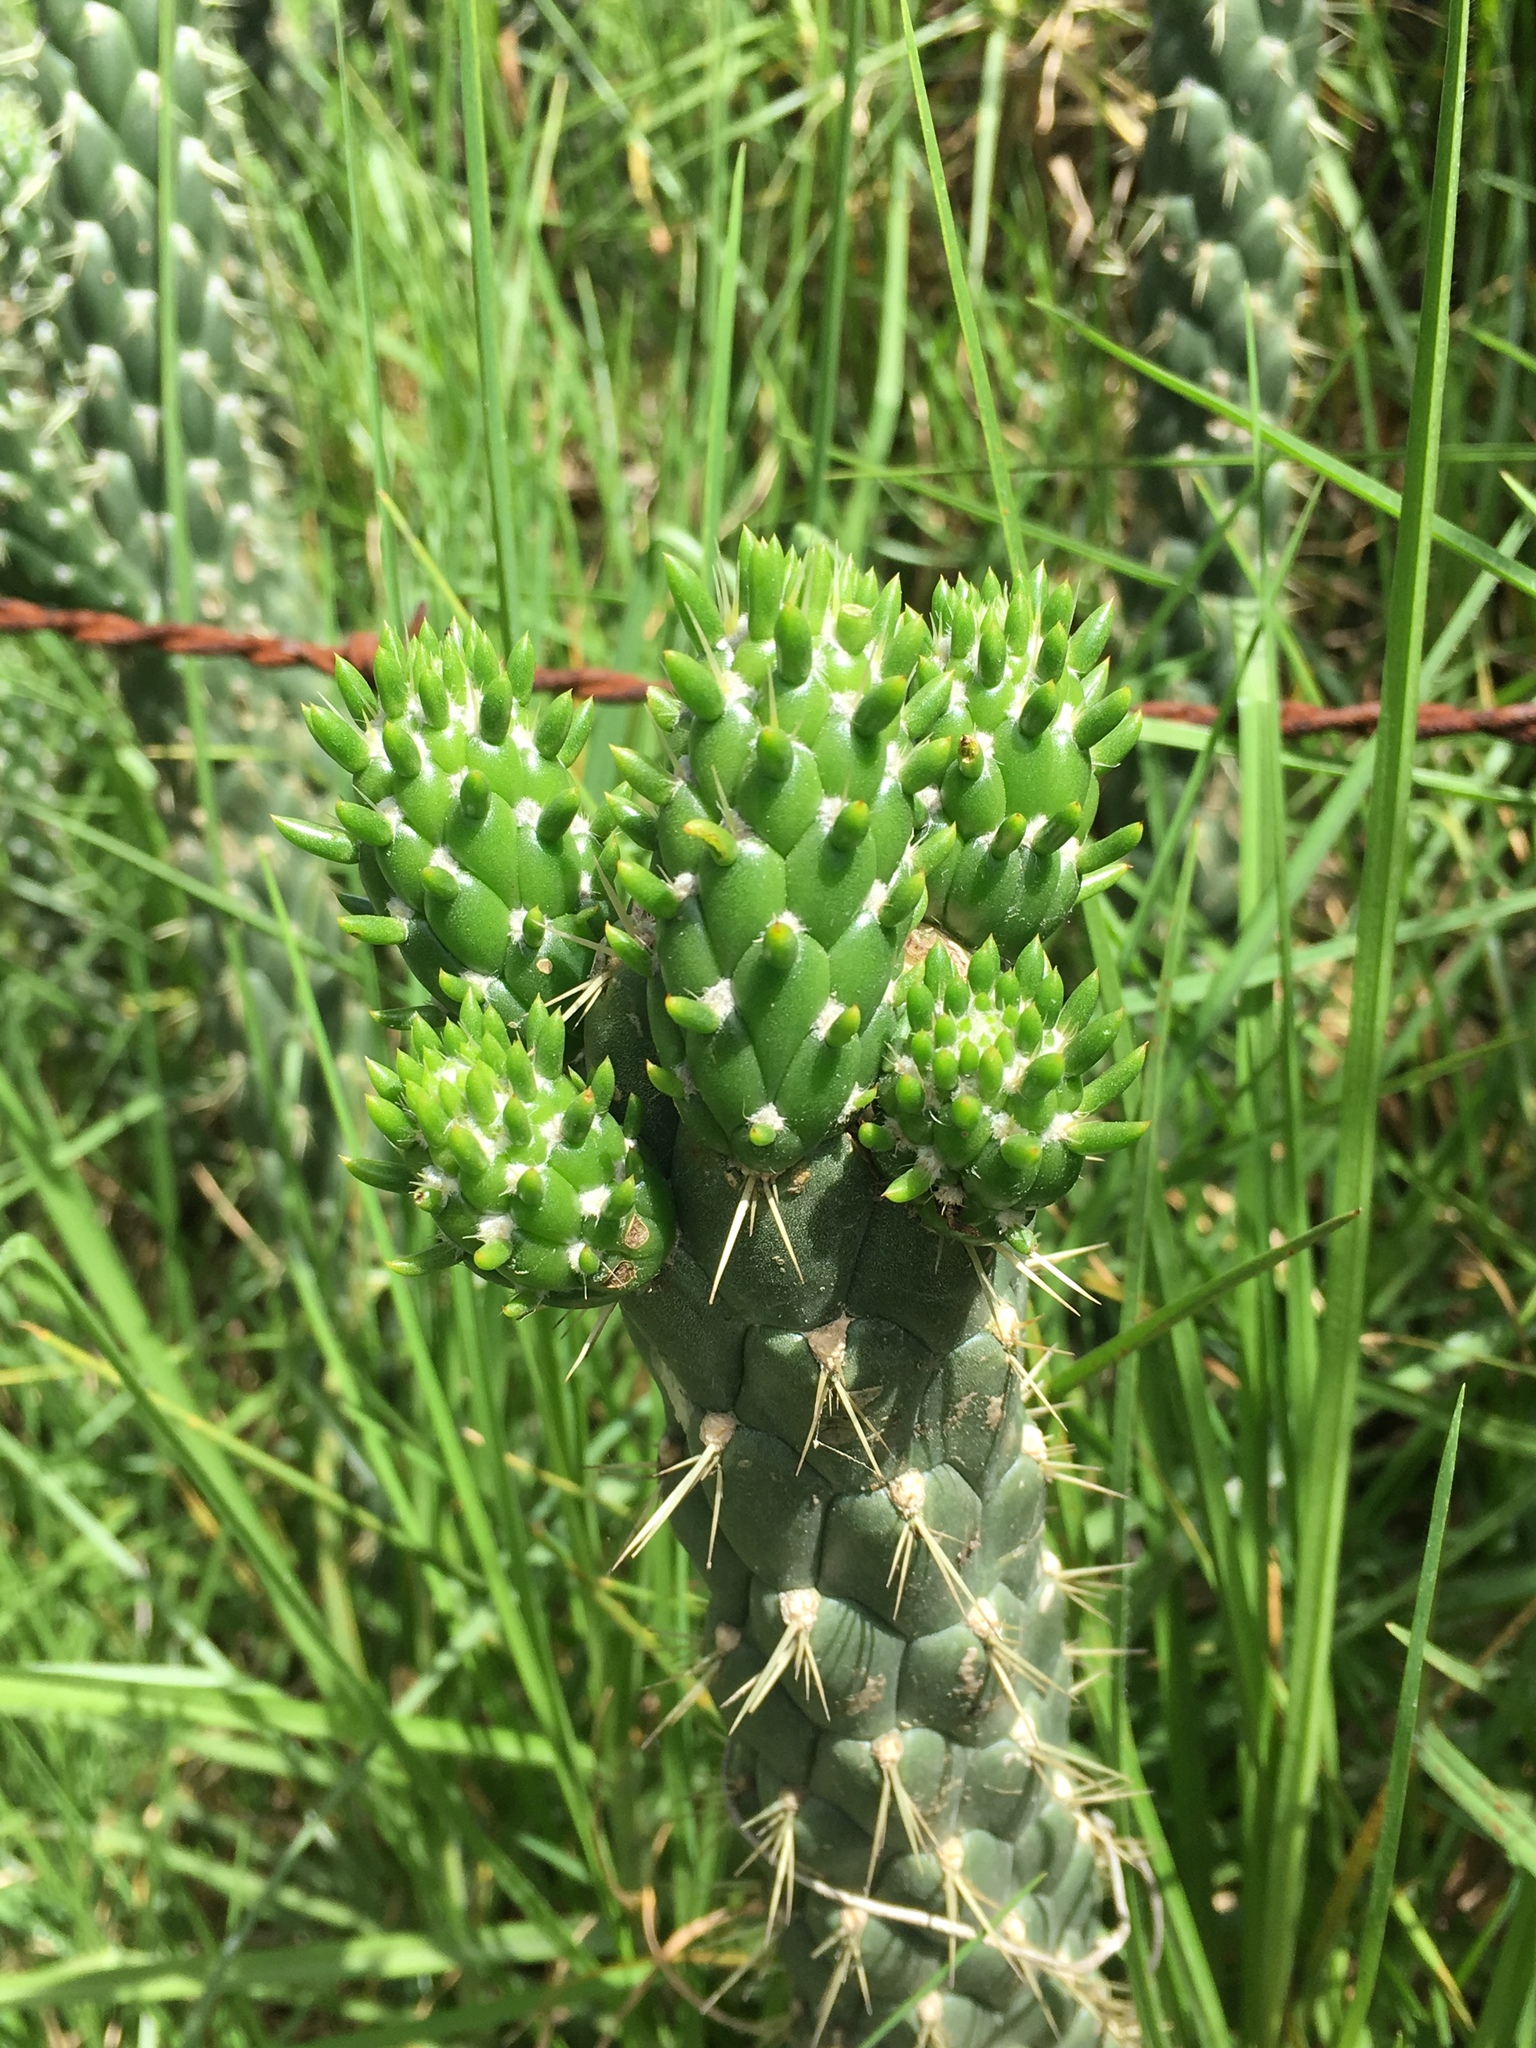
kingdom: Plantae
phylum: Tracheophyta
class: Magnoliopsida
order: Caryophyllales
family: Cactaceae
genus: Austrocylindropuntia
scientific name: Austrocylindropuntia subulata
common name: Eve's needle cactus
